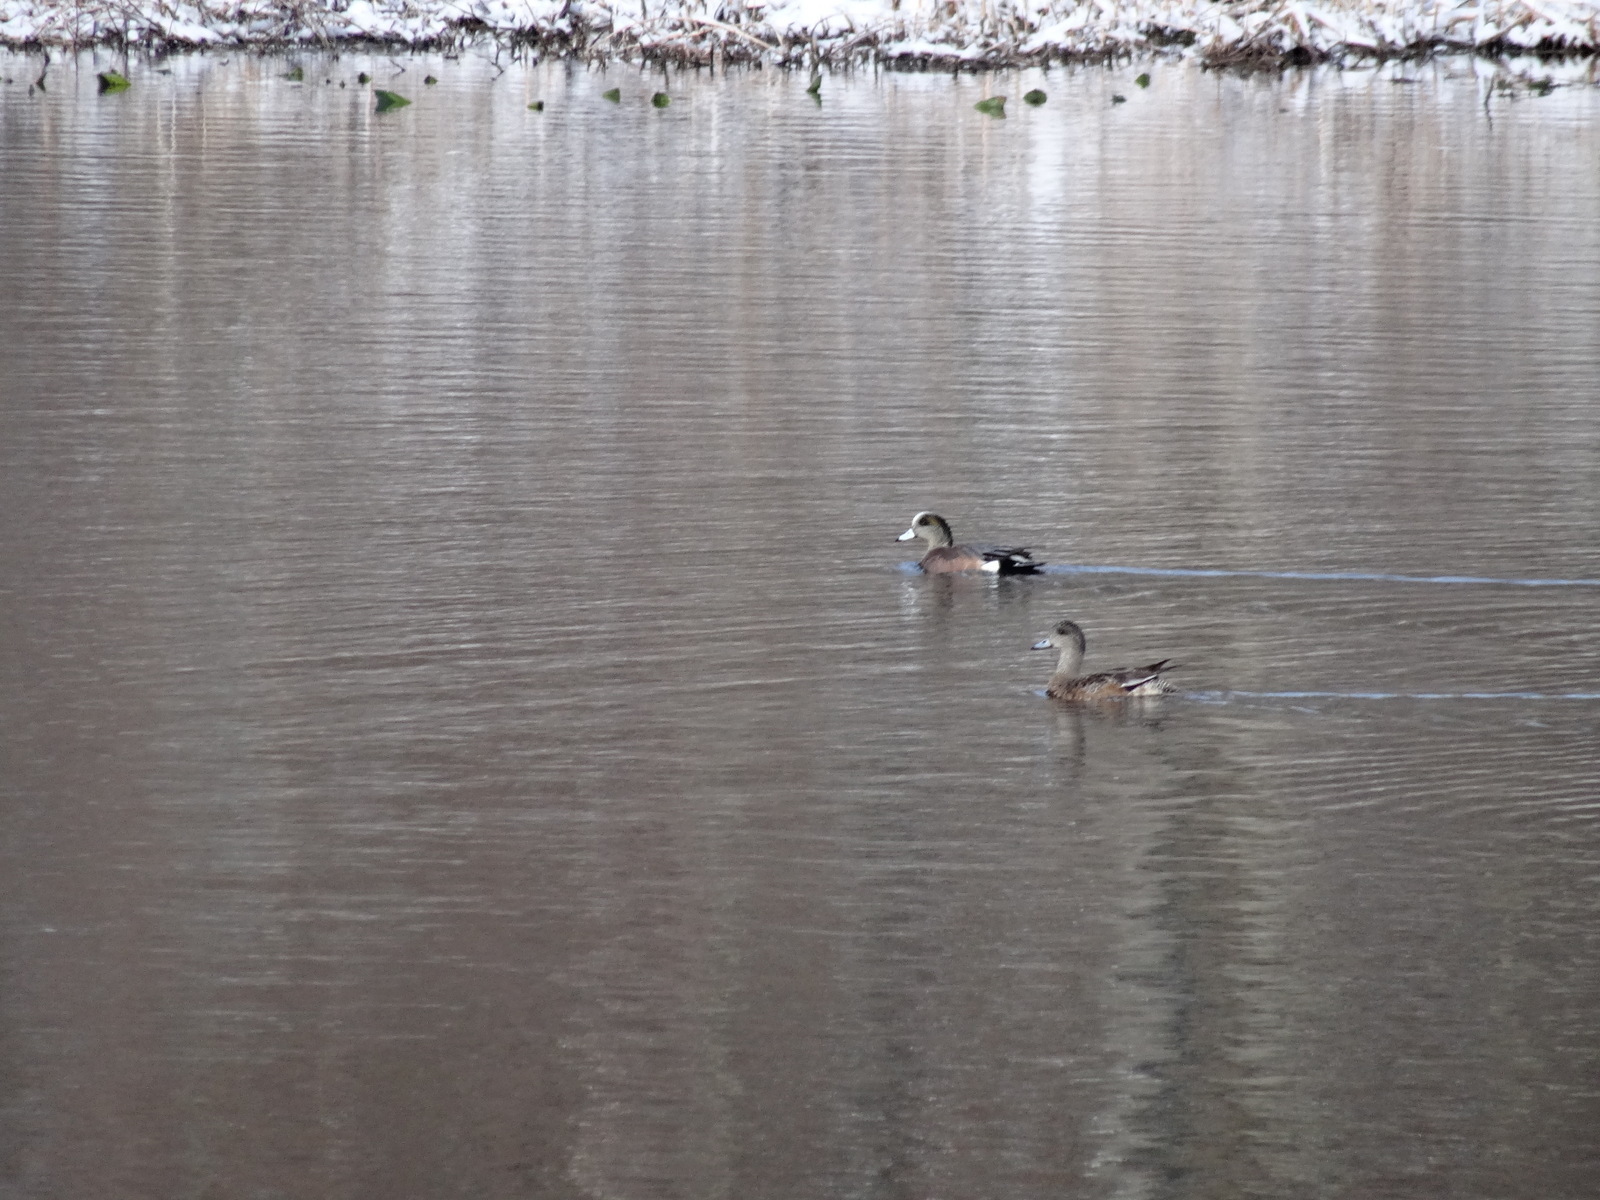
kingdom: Animalia
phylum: Chordata
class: Aves
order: Anseriformes
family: Anatidae
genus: Mareca
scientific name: Mareca americana
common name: American wigeon
